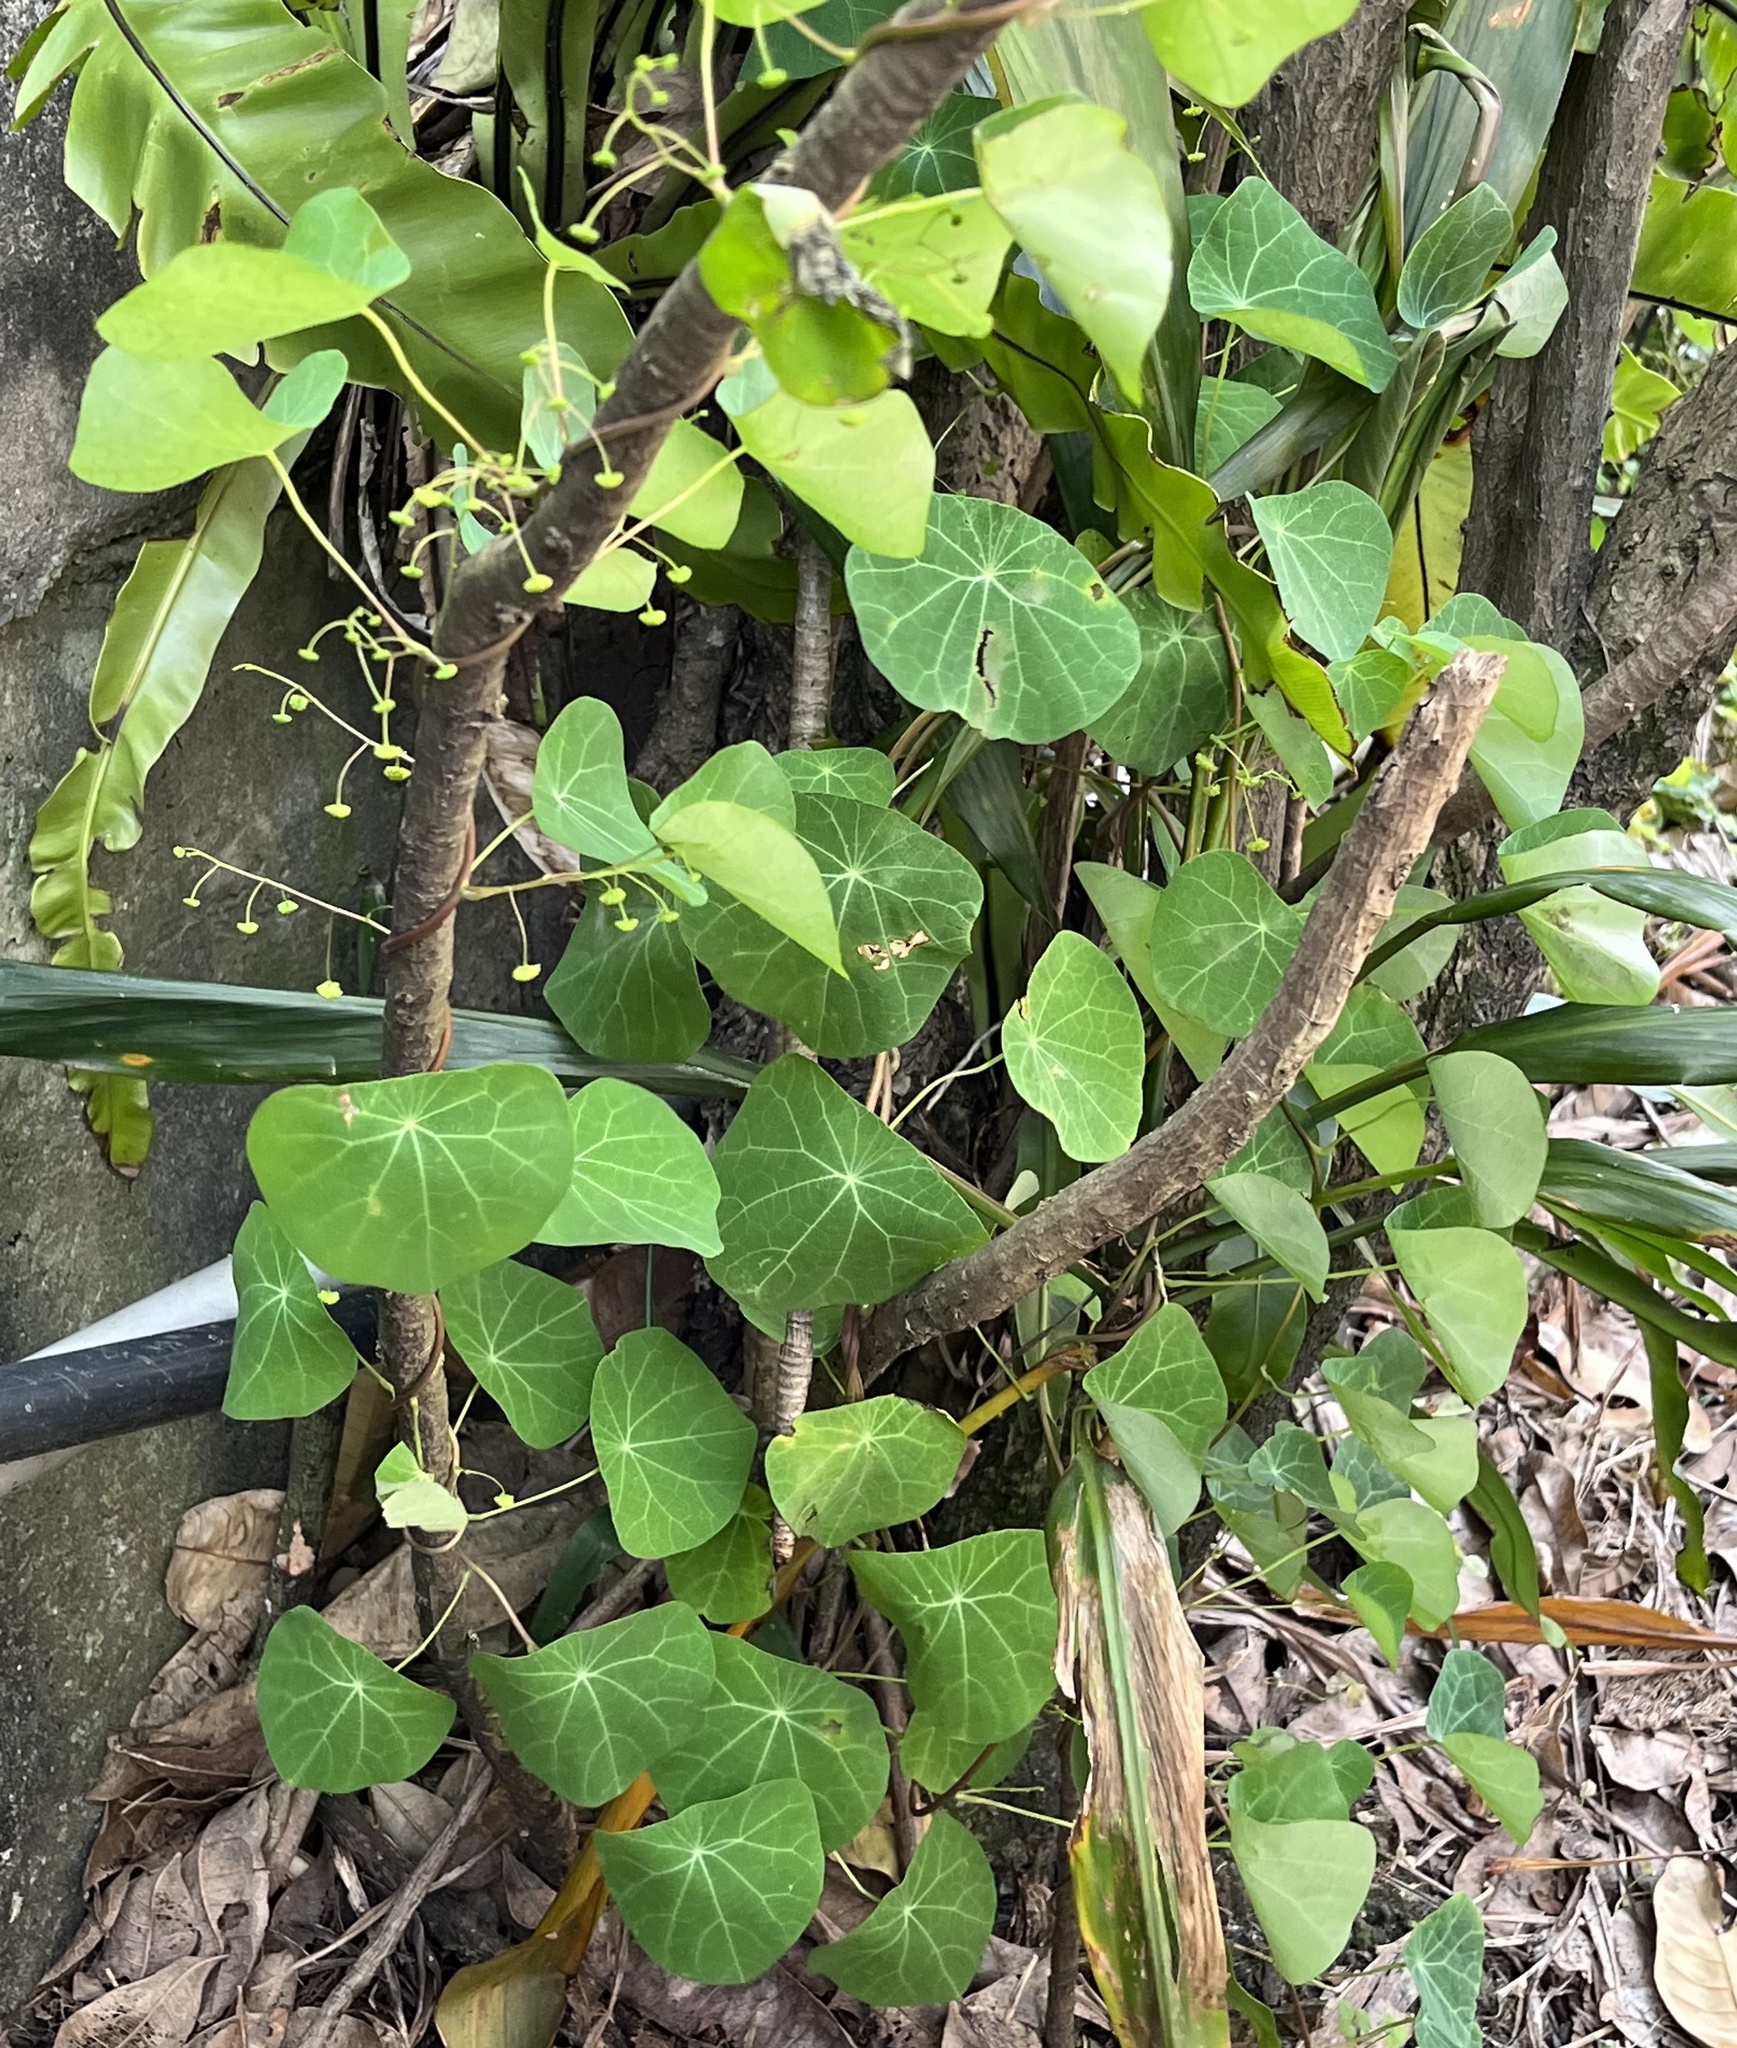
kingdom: Plantae
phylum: Tracheophyta
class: Magnoliopsida
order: Ranunculales
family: Menispermaceae
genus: Stephania
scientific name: Stephania cephalantha
